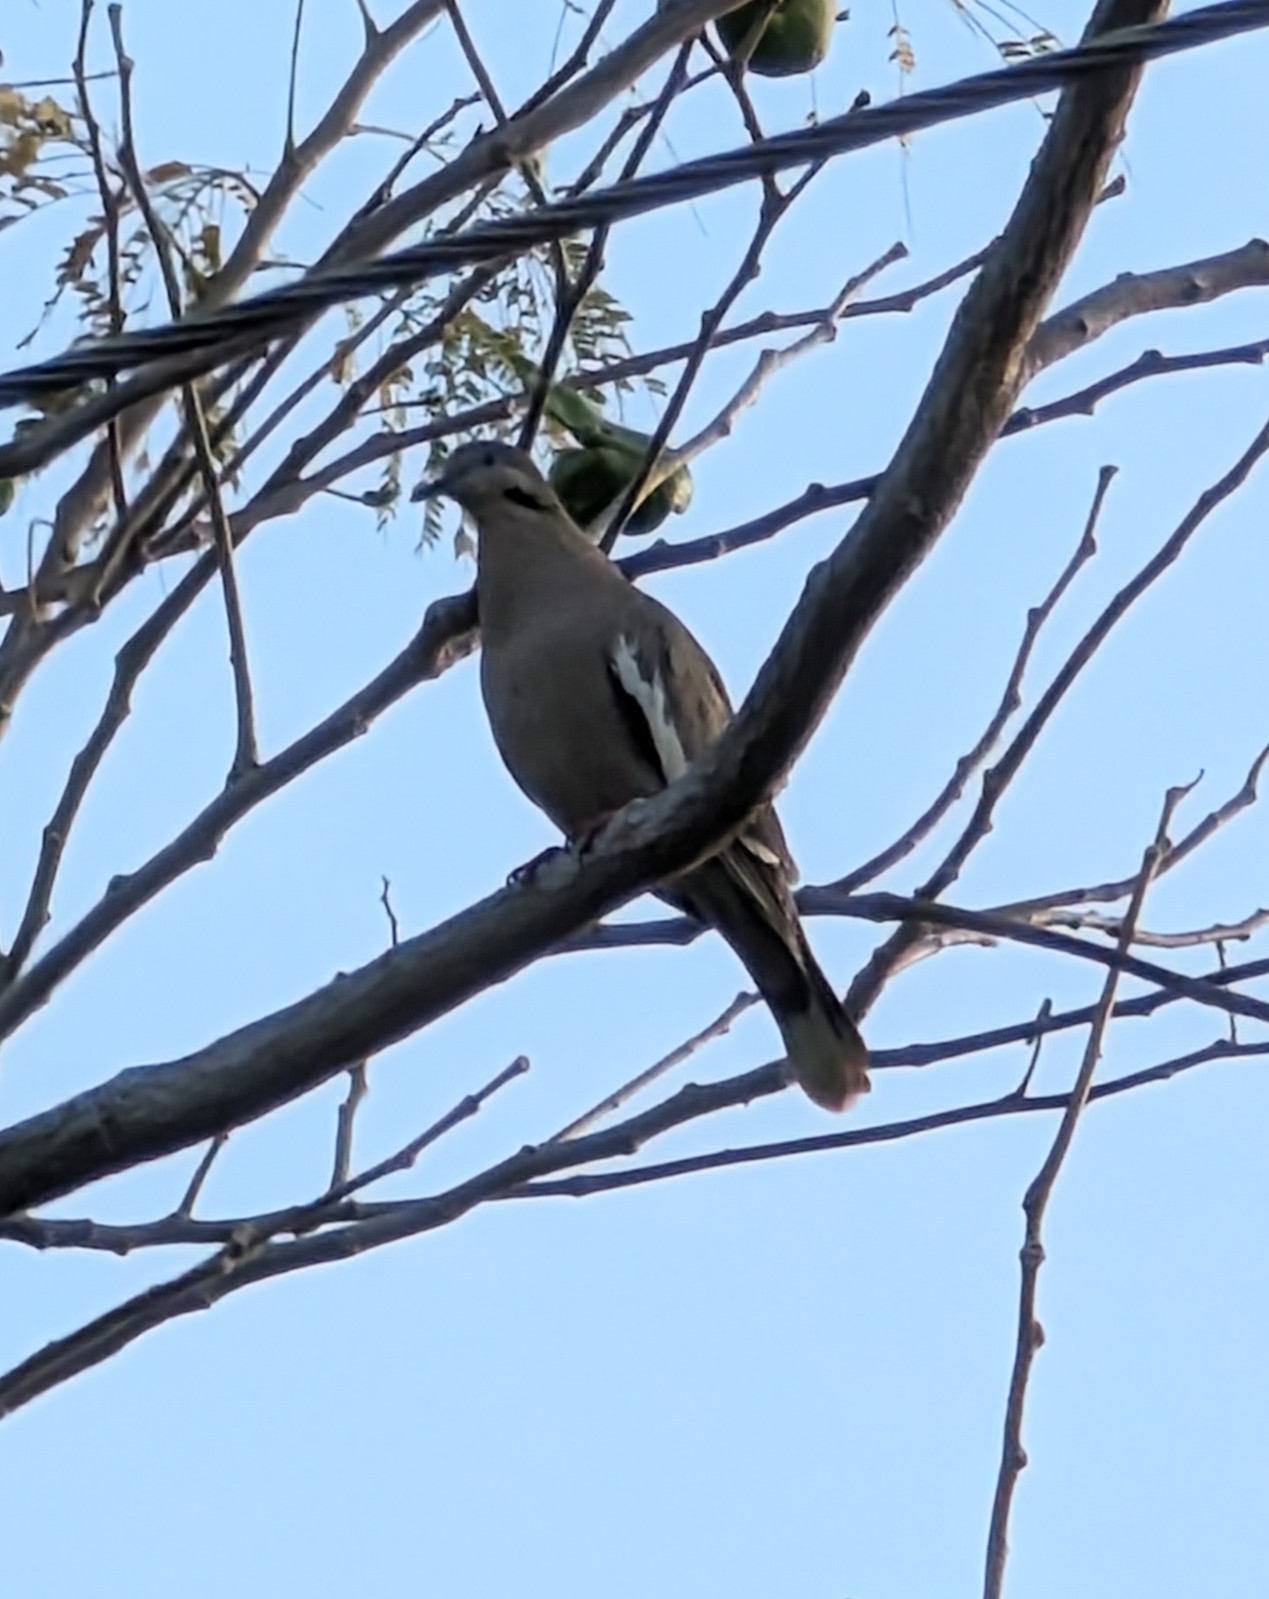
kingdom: Animalia
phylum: Chordata
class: Aves
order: Columbiformes
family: Columbidae
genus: Zenaida
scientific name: Zenaida asiatica
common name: White-winged dove
